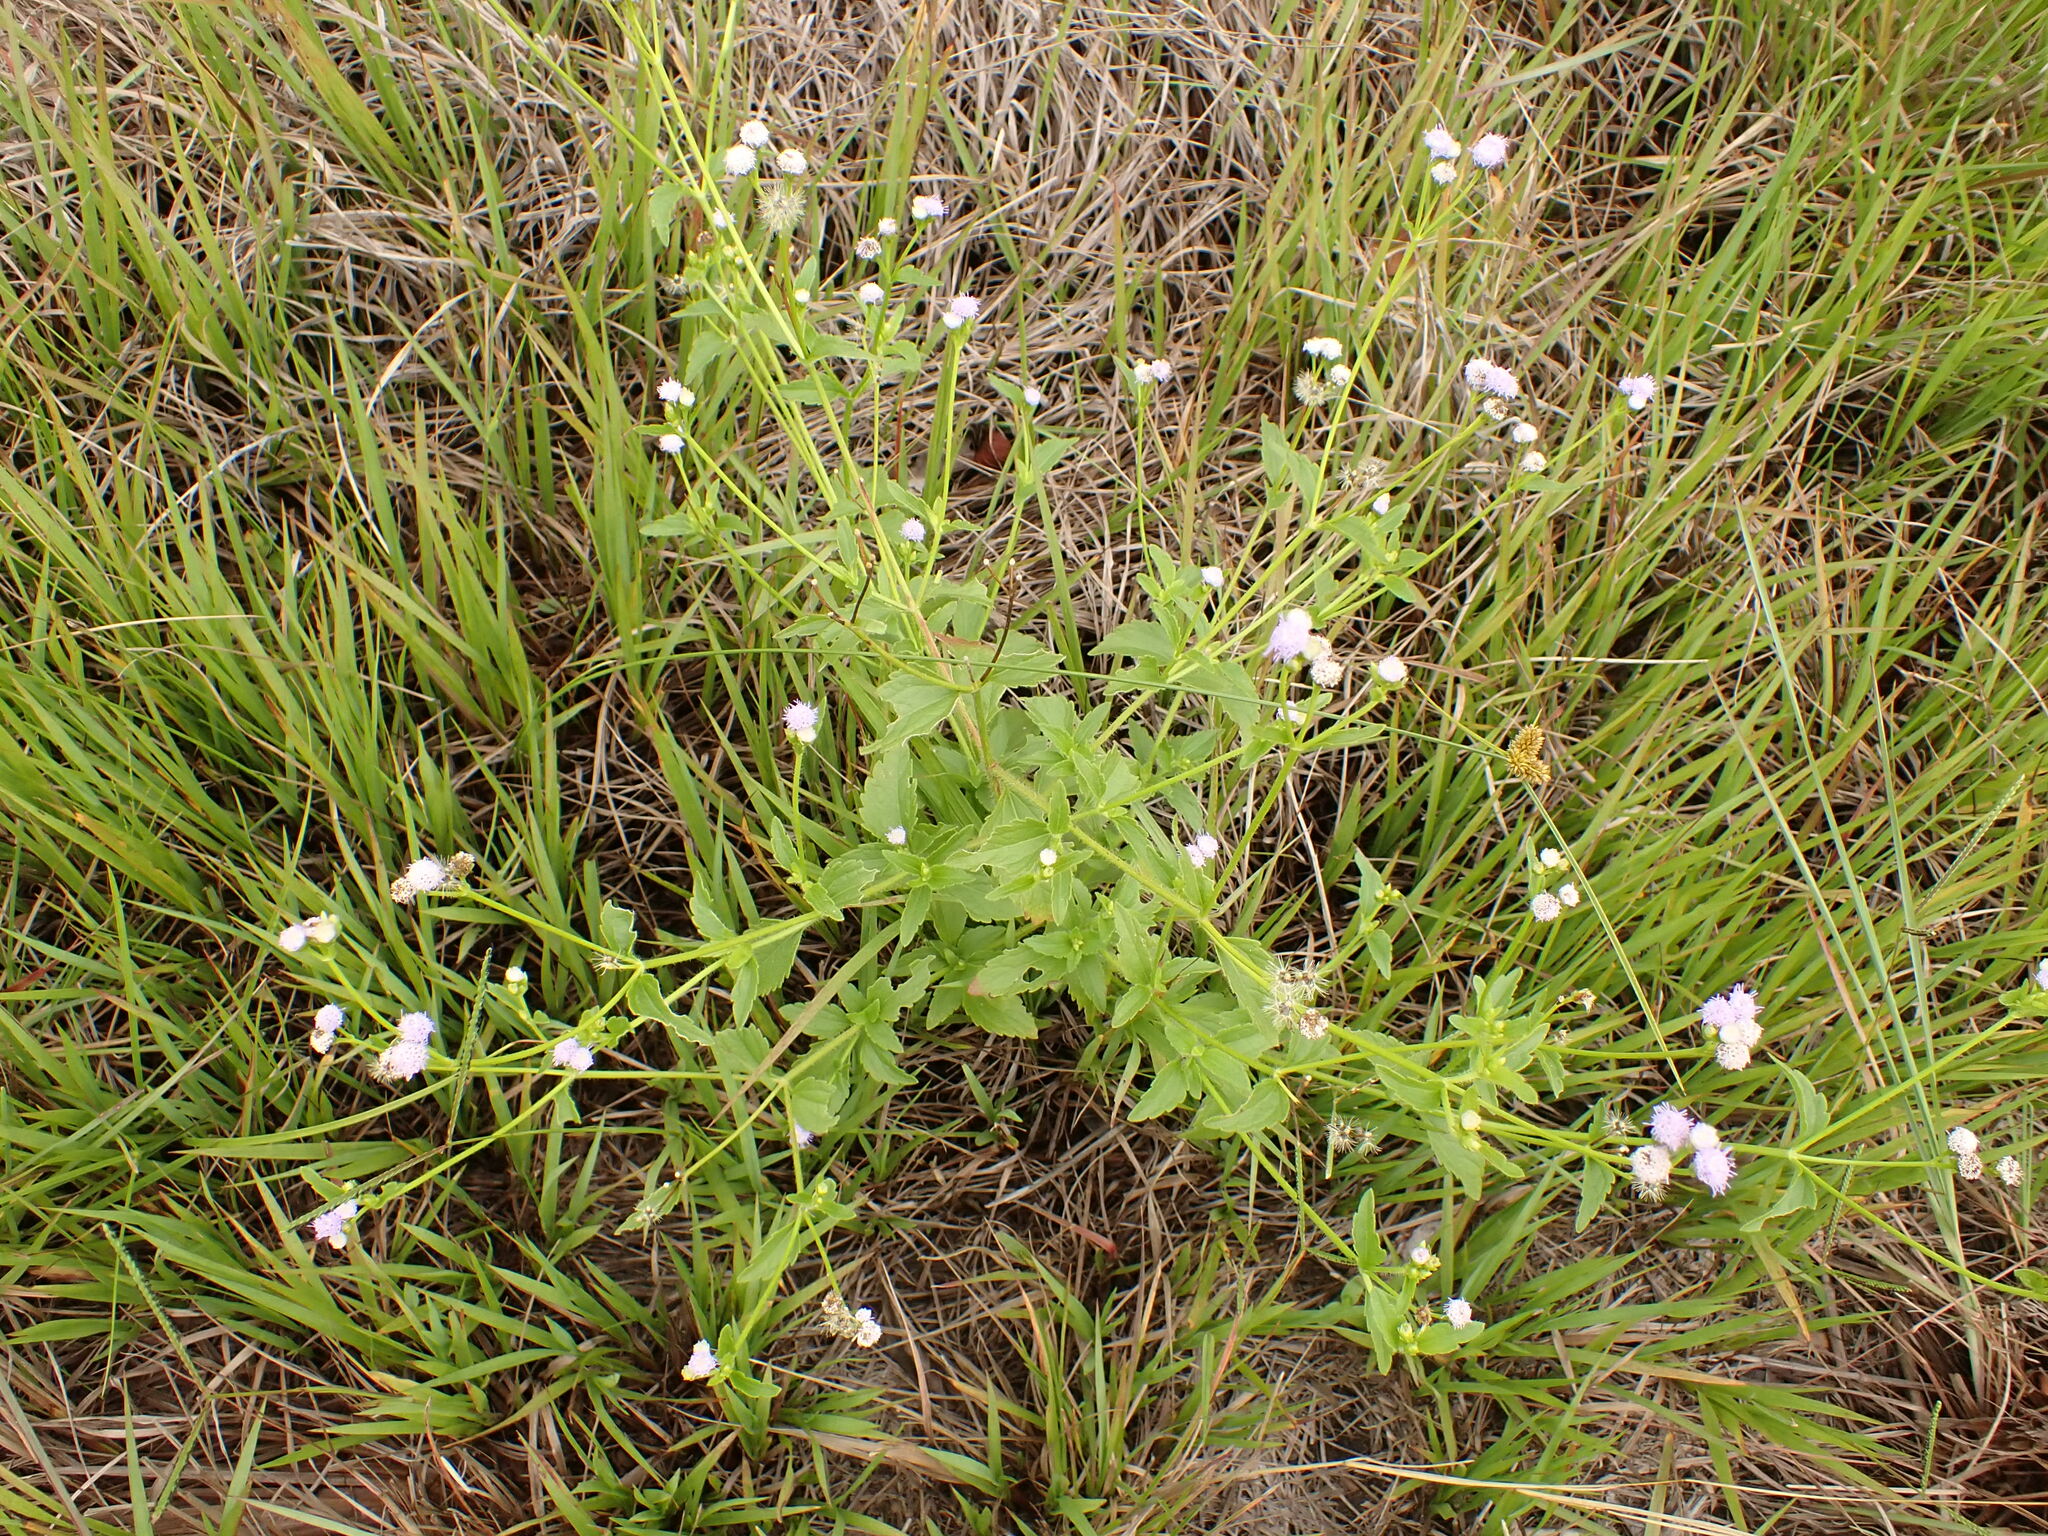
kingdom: Plantae
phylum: Tracheophyta
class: Magnoliopsida
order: Asterales
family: Asteraceae
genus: Praxelis
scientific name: Praxelis clematidea
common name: Praxelis
